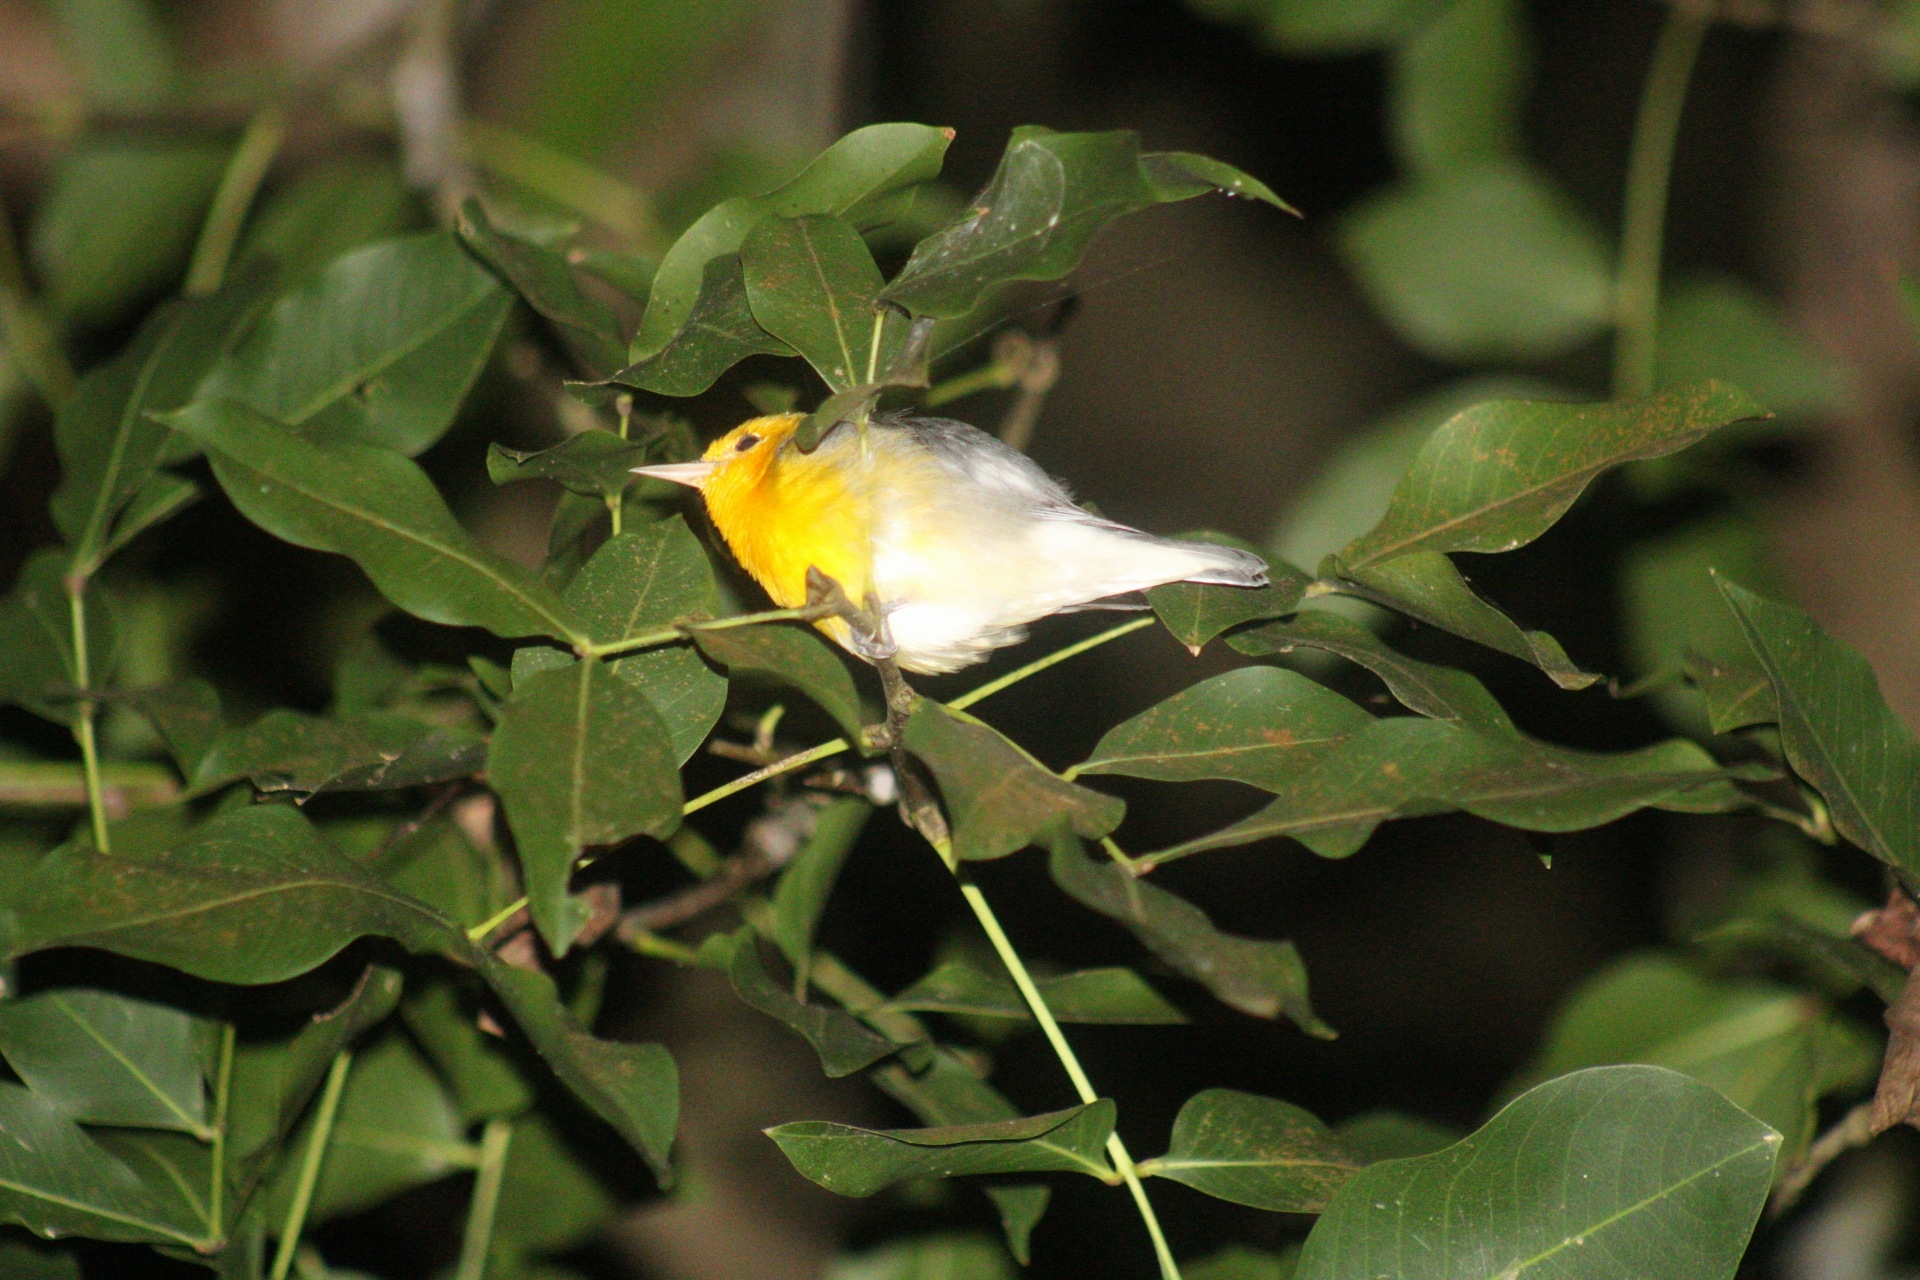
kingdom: Animalia
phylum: Chordata
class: Aves
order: Passeriformes
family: Parulidae
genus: Protonotaria
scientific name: Protonotaria citrea
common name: Prothonotary warbler
